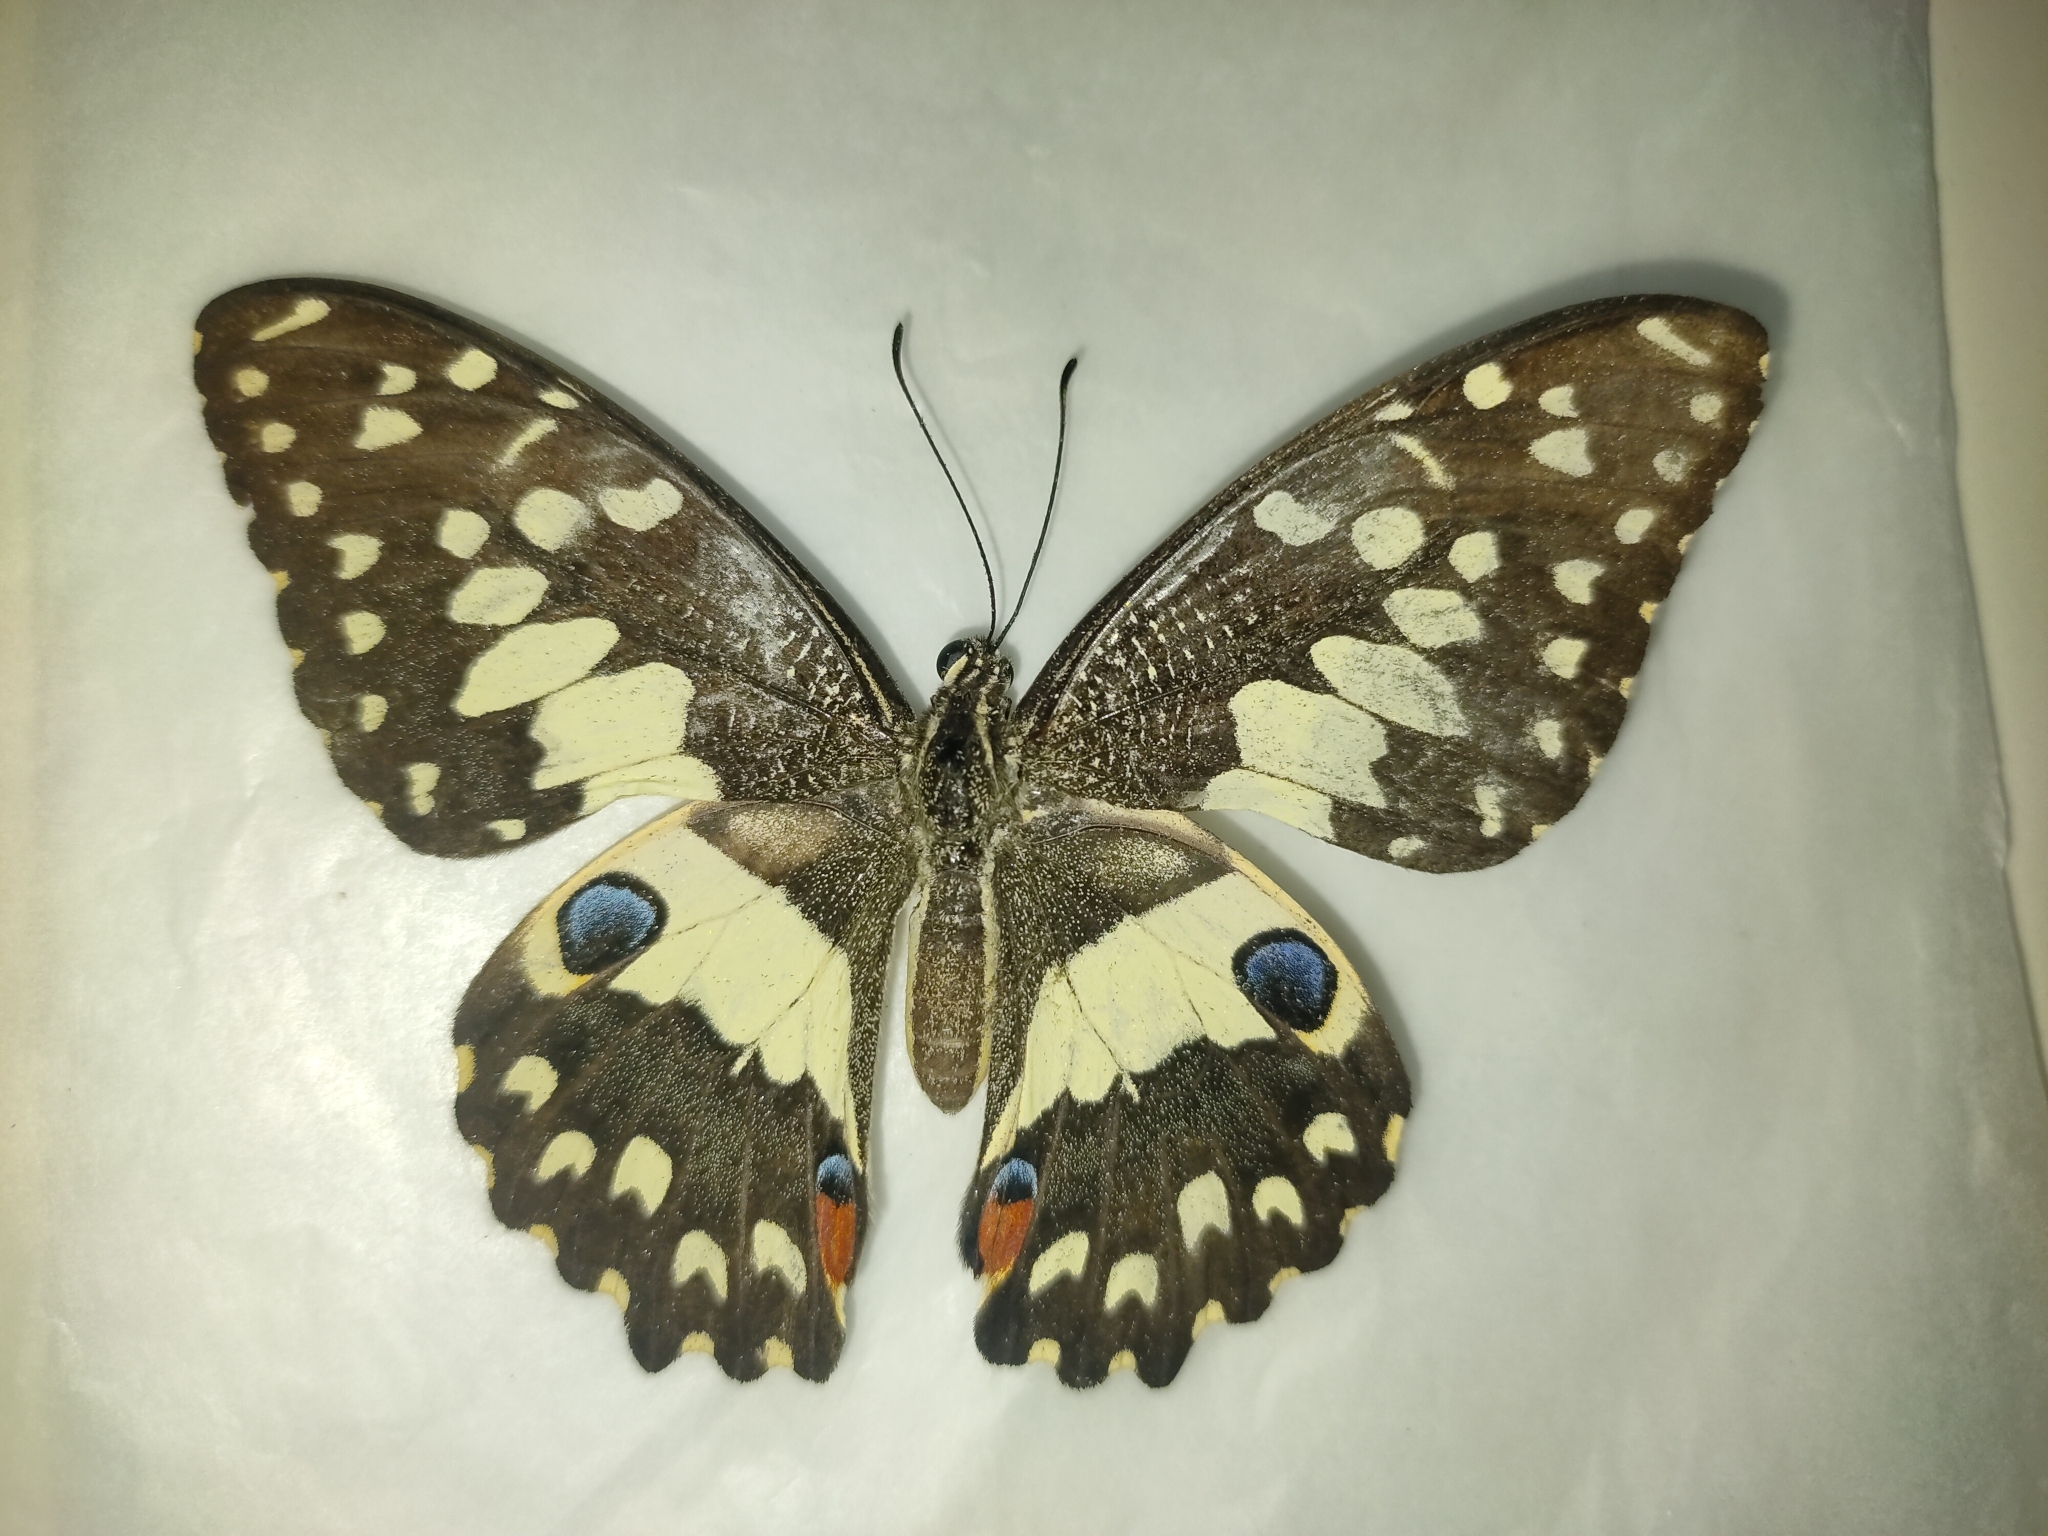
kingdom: Animalia
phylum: Arthropoda
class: Insecta
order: Lepidoptera
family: Papilionidae
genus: Papilio
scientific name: Papilio demoleus
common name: Lime butterfly
